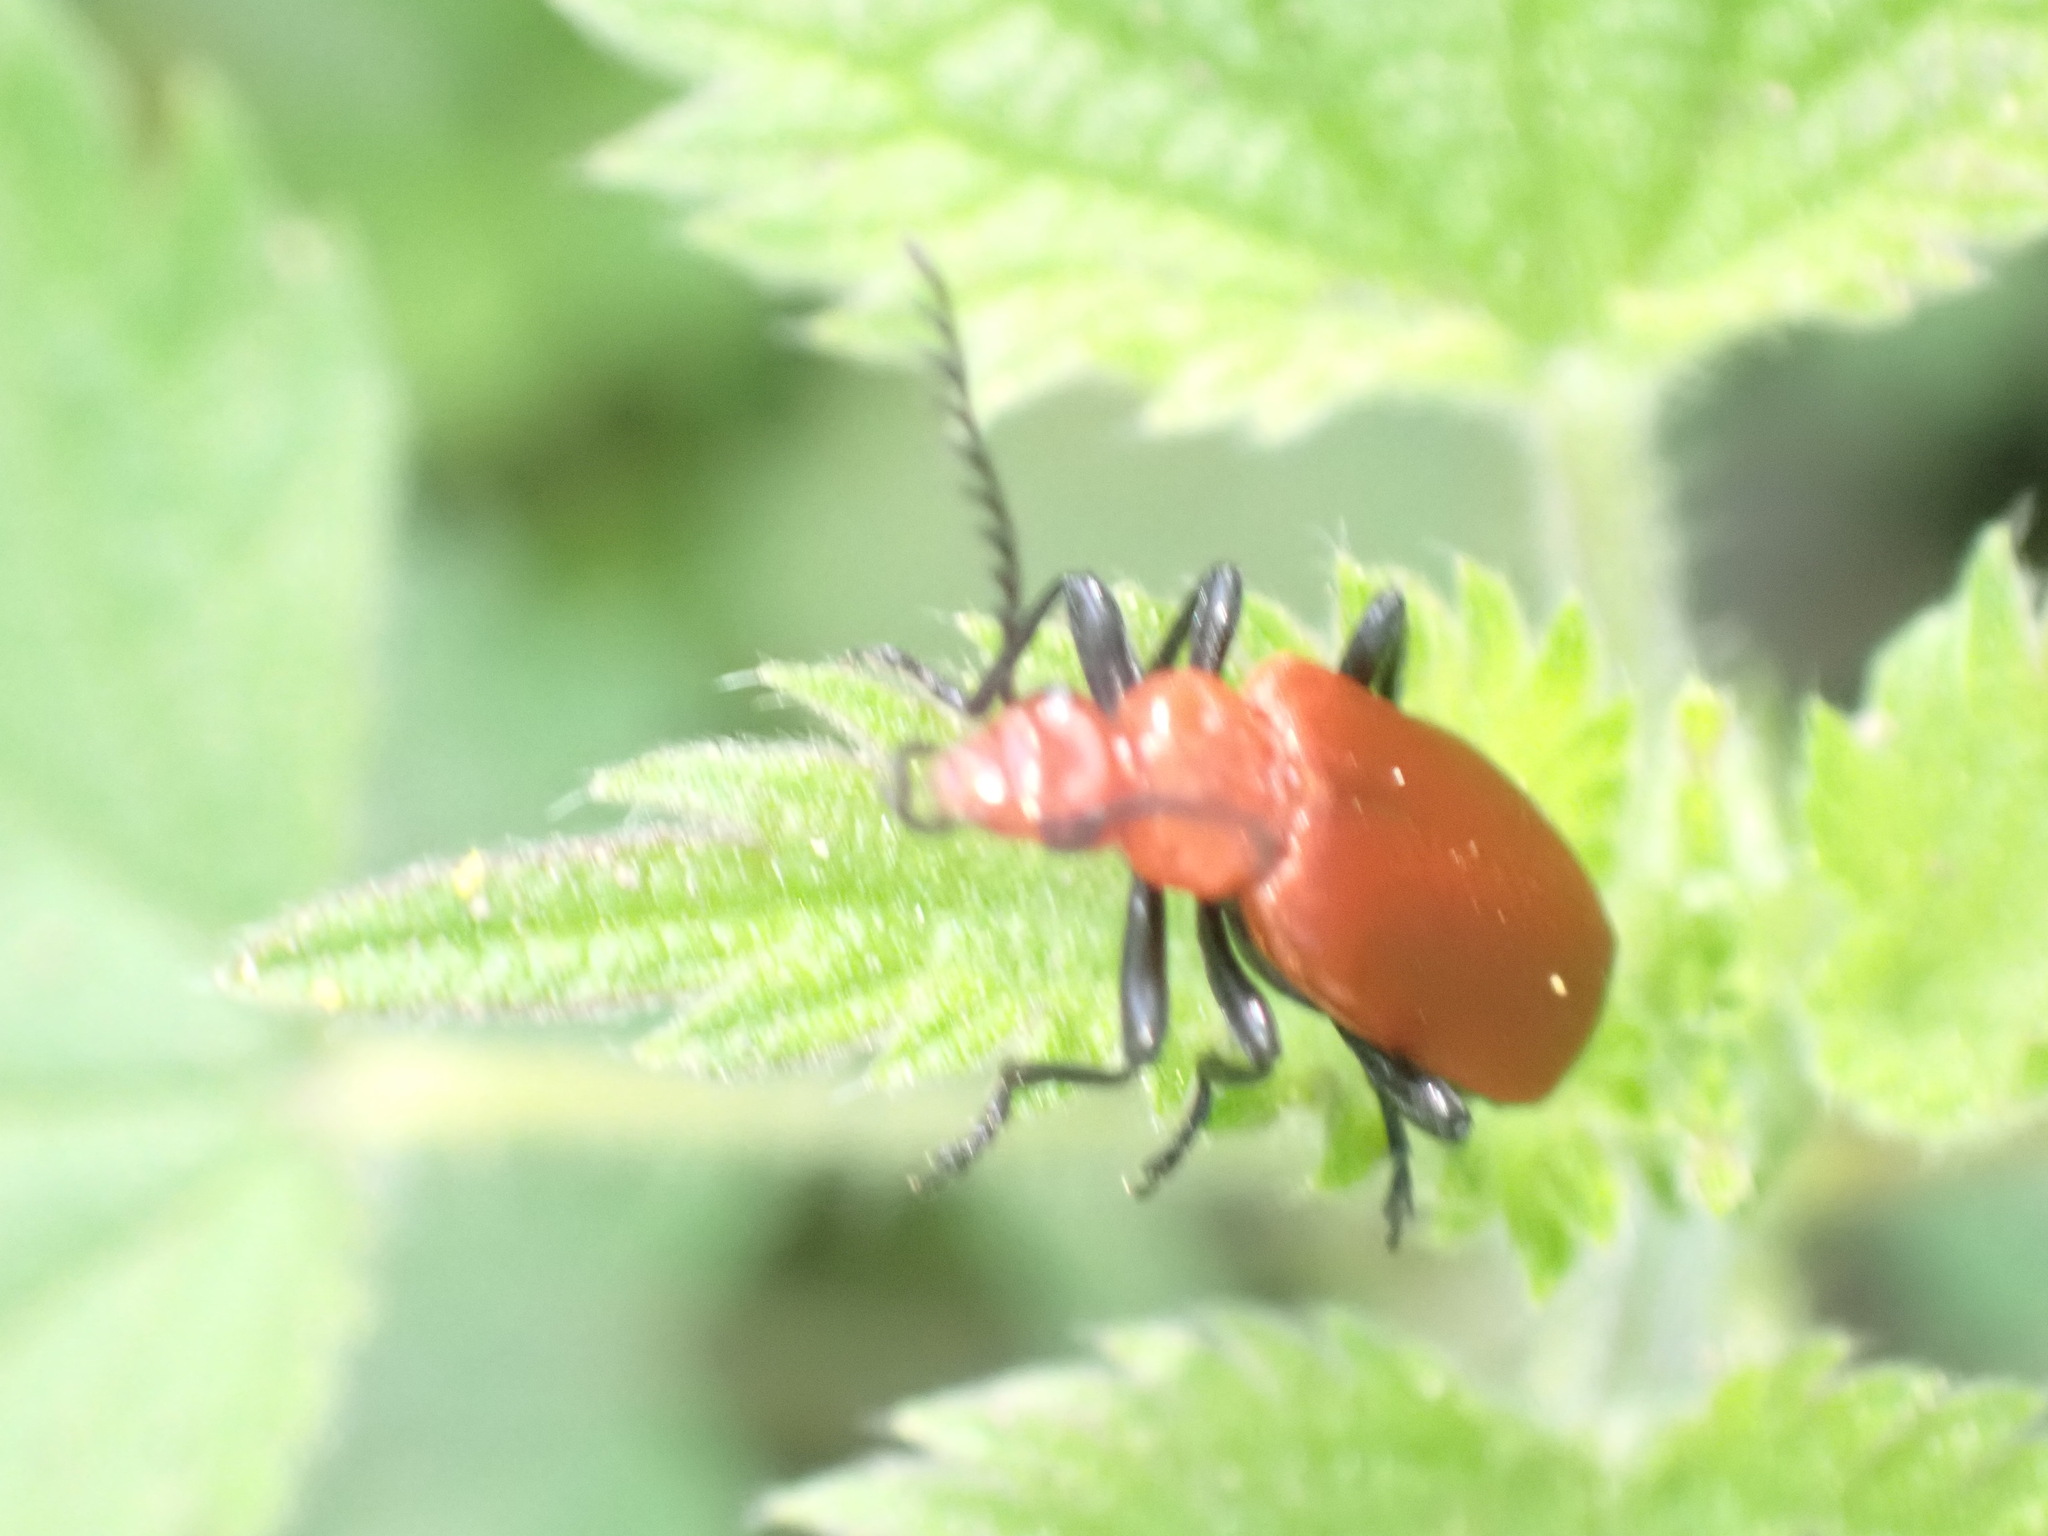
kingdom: Animalia
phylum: Arthropoda
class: Insecta
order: Coleoptera
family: Pyrochroidae
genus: Pyrochroa
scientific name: Pyrochroa serraticornis
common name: Red-headed cardinal beetle
